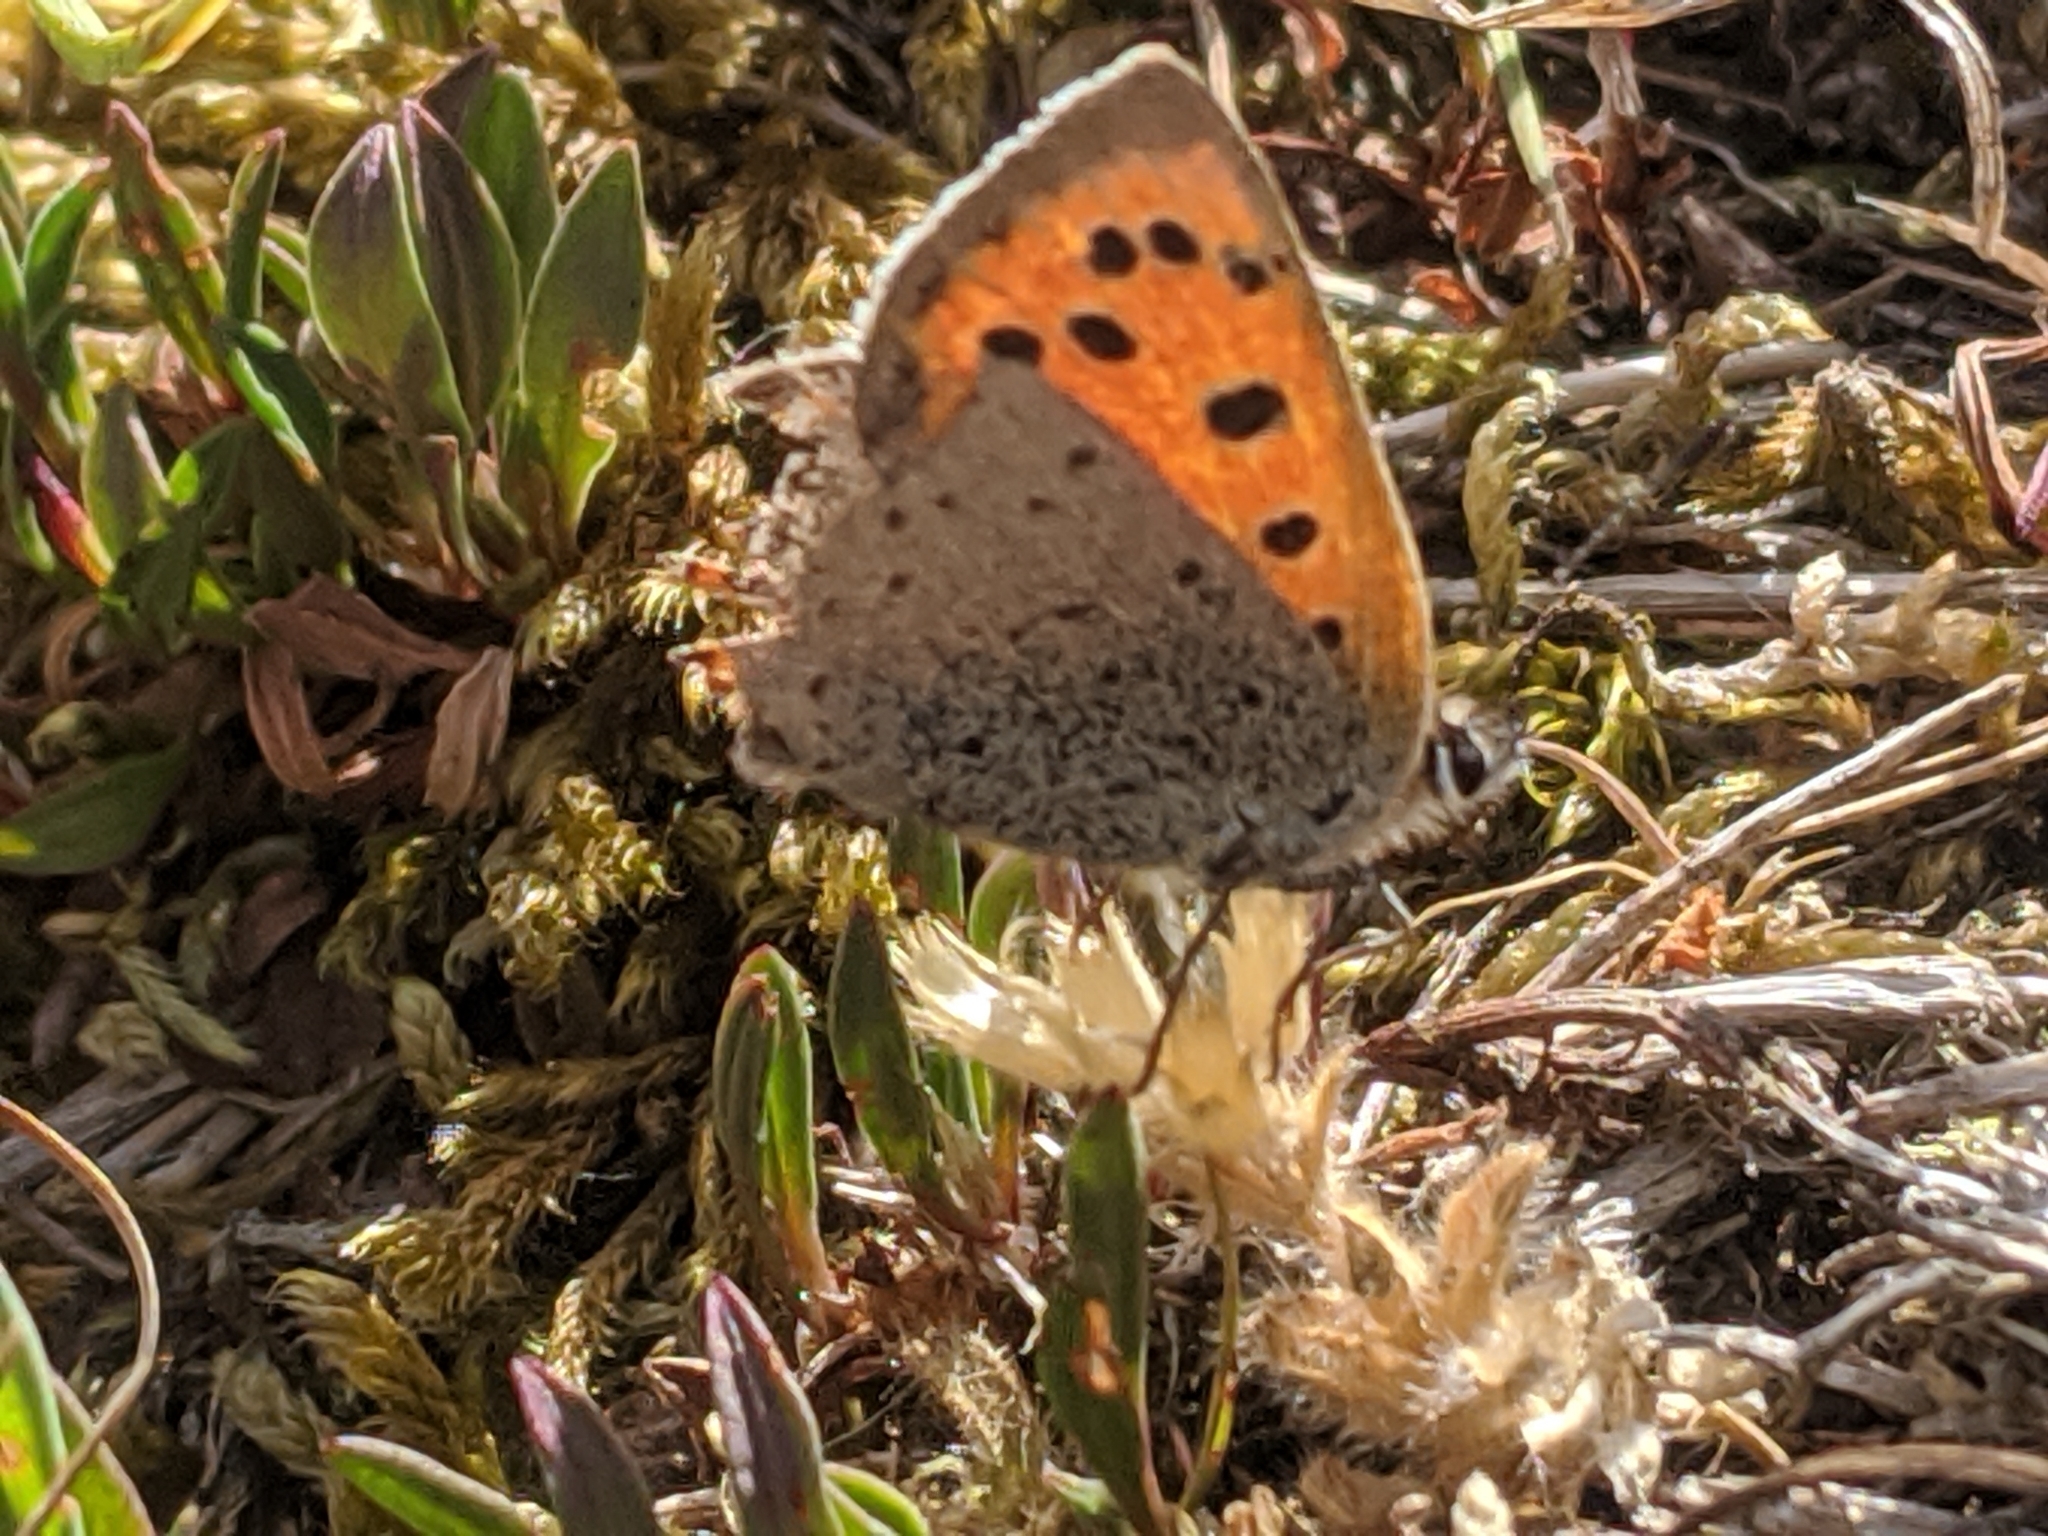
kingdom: Animalia
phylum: Arthropoda
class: Insecta
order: Lepidoptera
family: Lycaenidae
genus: Lycaena
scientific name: Lycaena phlaeas
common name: Small copper
